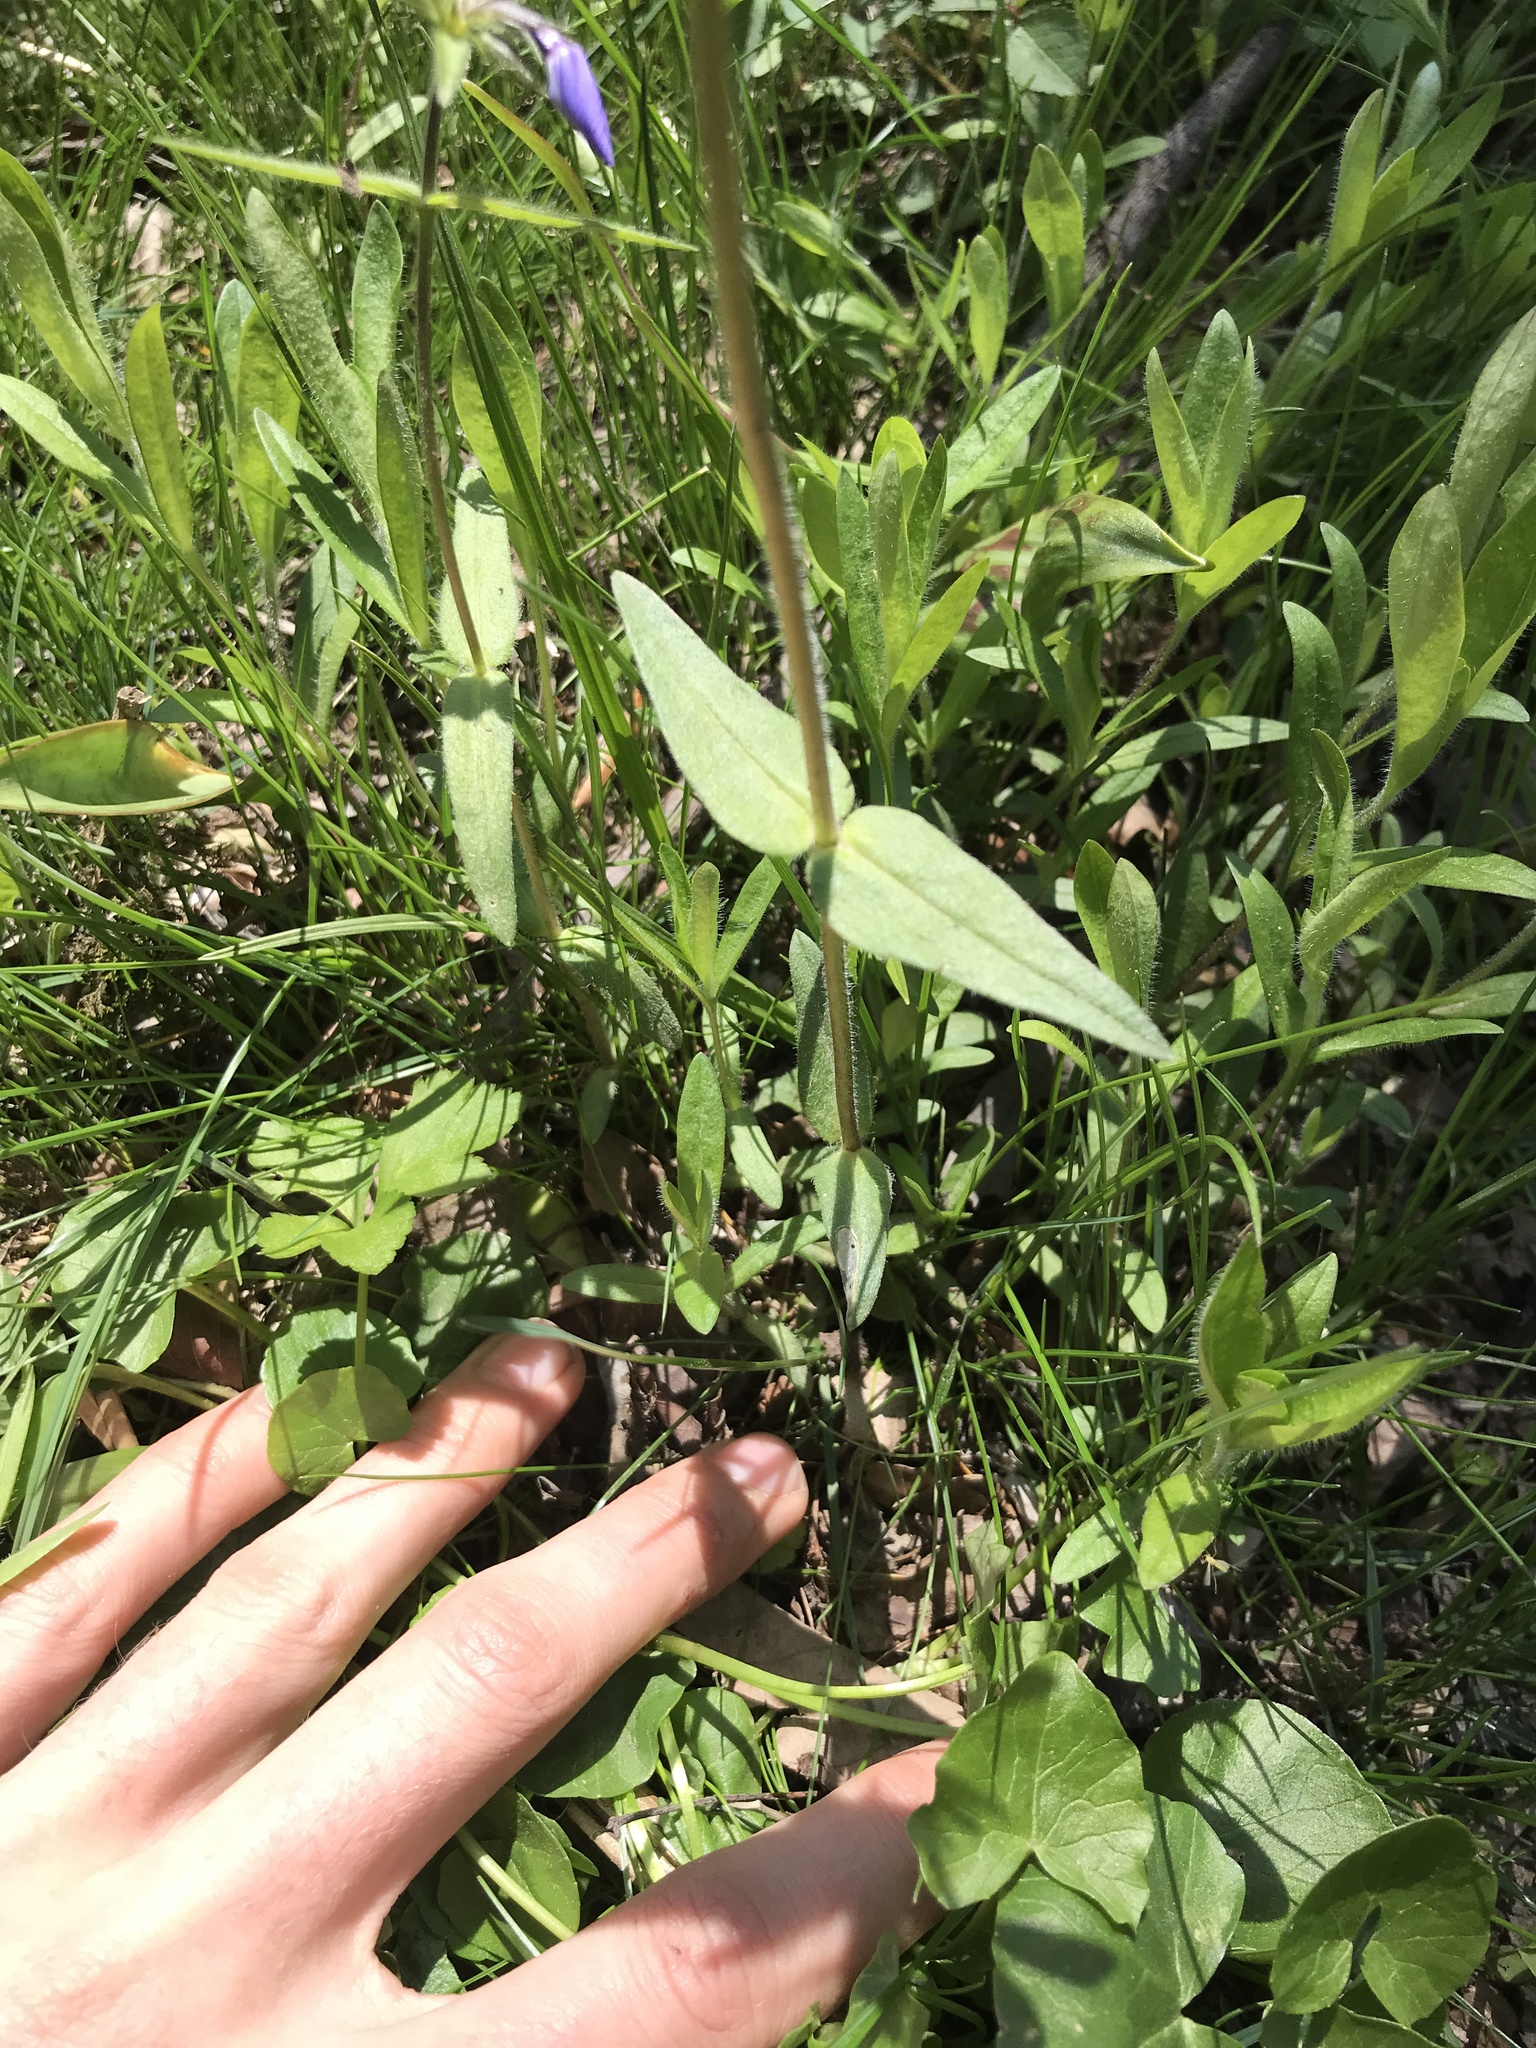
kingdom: Plantae
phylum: Tracheophyta
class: Magnoliopsida
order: Ericales
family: Polemoniaceae
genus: Phlox
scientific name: Phlox divaricata
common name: Blue phlox
